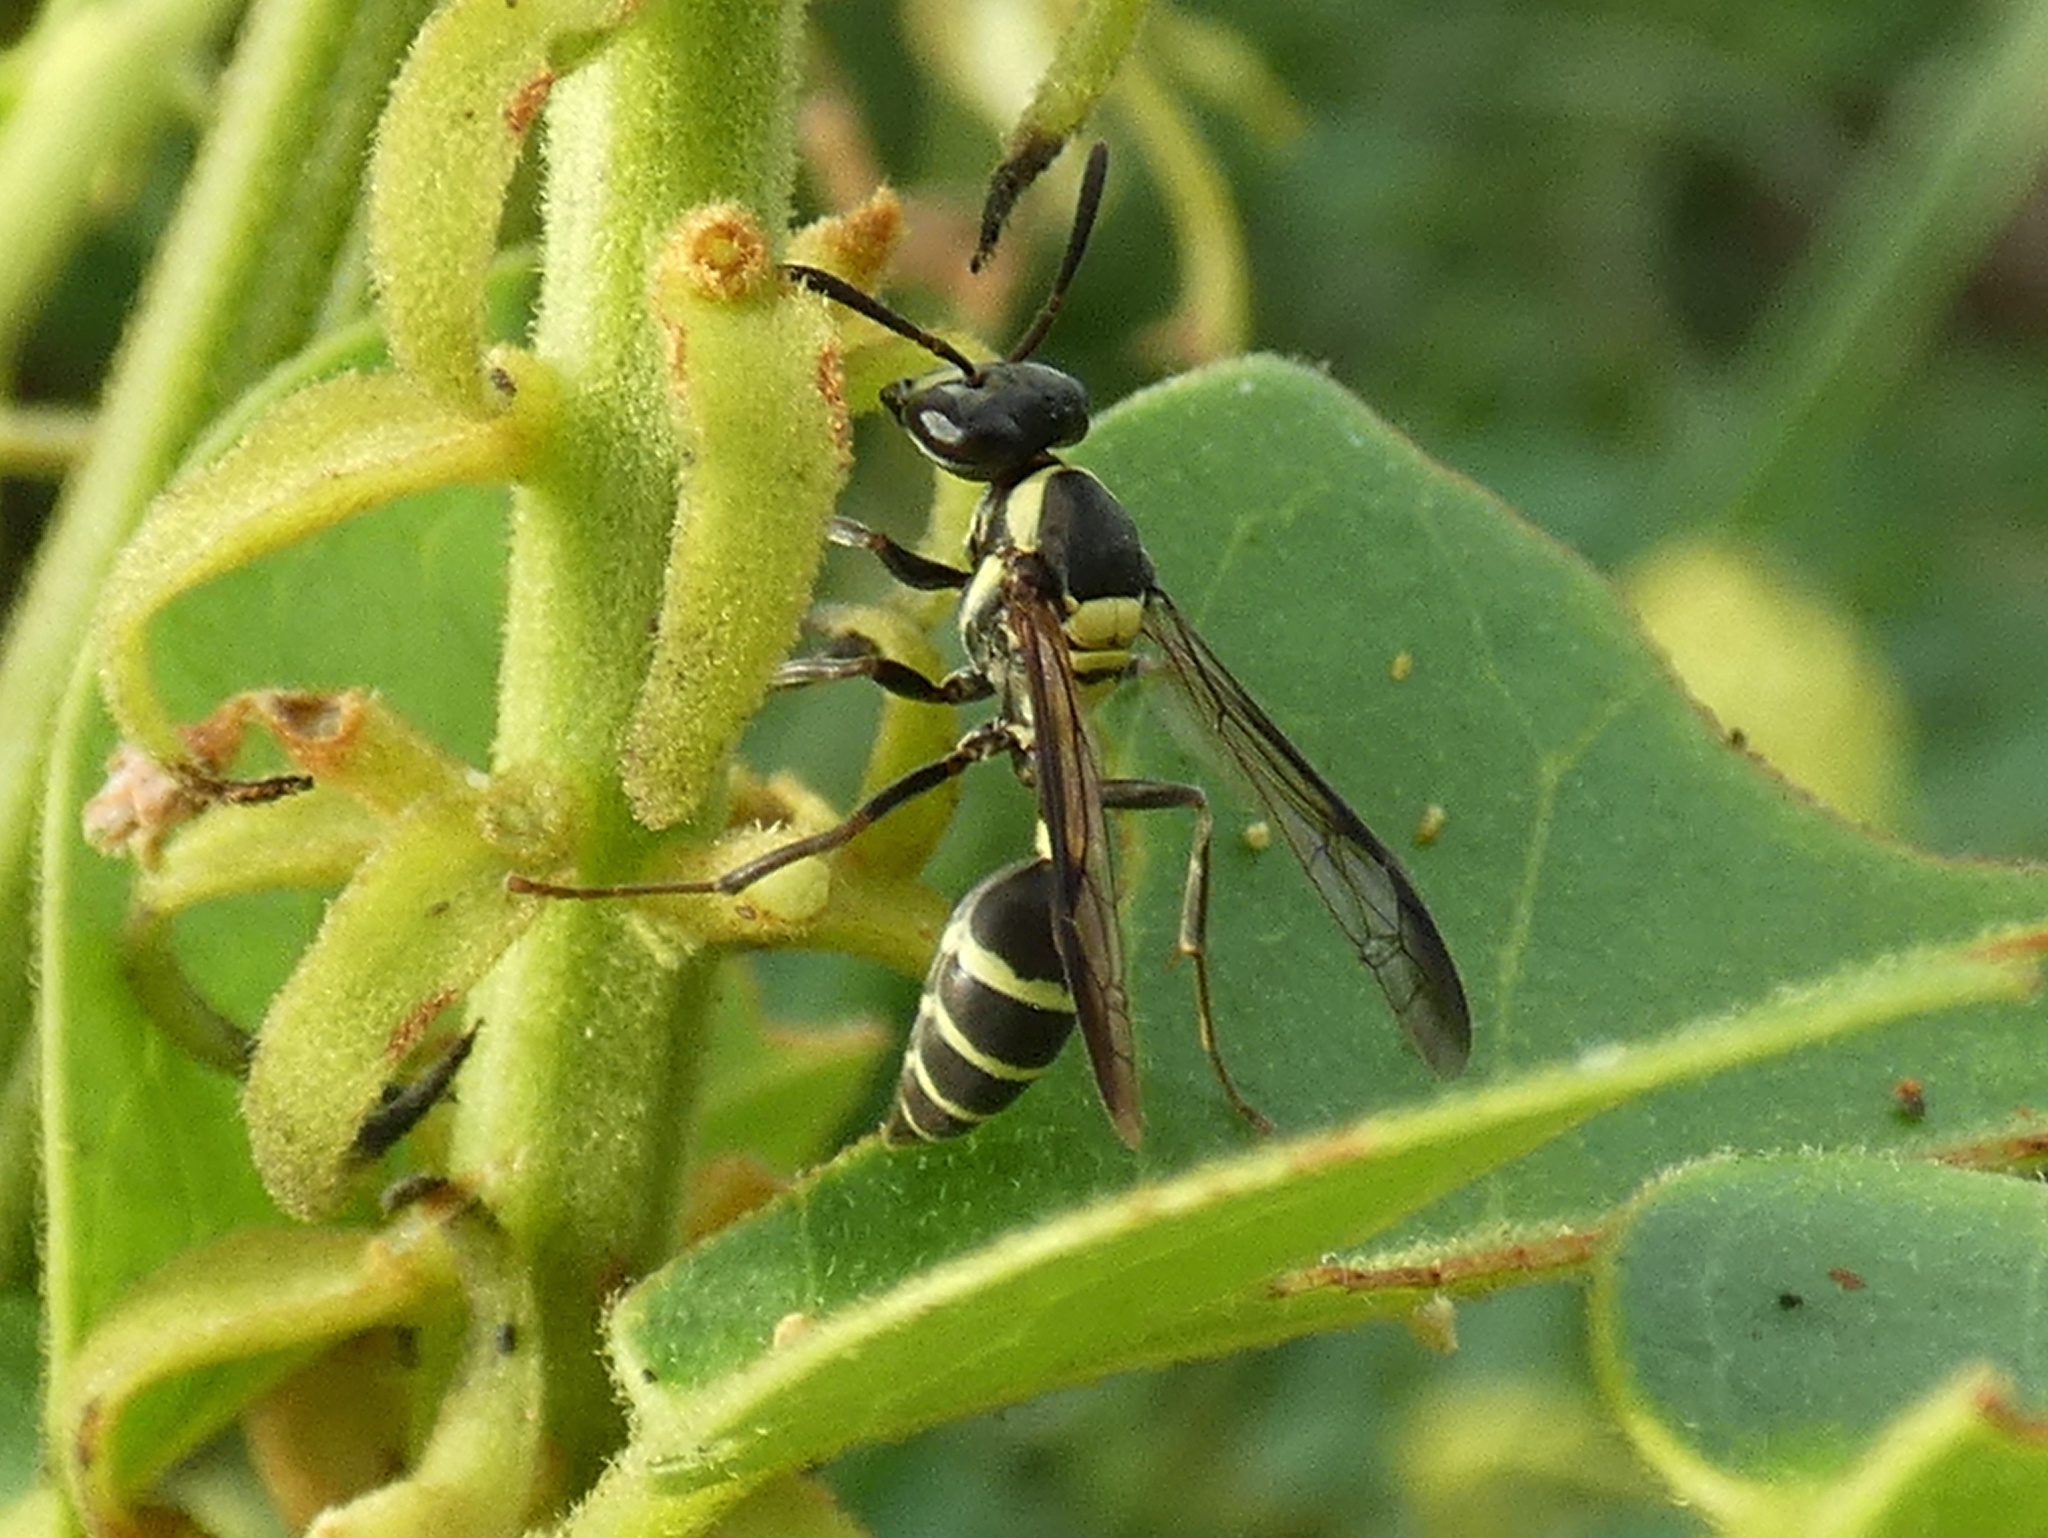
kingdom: Animalia
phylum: Arthropoda
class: Insecta
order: Hymenoptera
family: Eumenidae
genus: Polybia
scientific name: Polybia occidentalis
